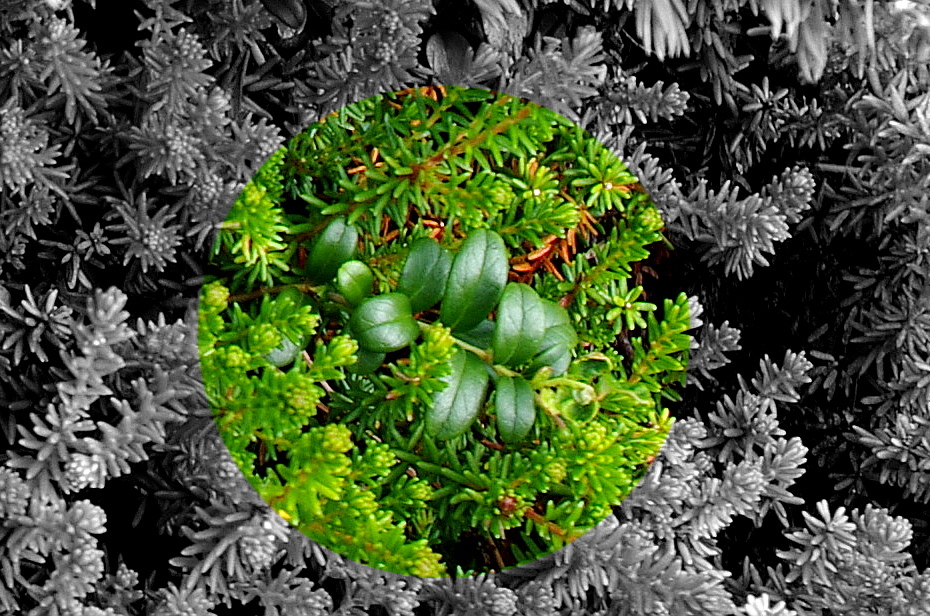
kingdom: Plantae
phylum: Tracheophyta
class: Magnoliopsida
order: Ericales
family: Ericaceae
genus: Vaccinium
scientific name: Vaccinium vitis-idaea
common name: Cowberry
